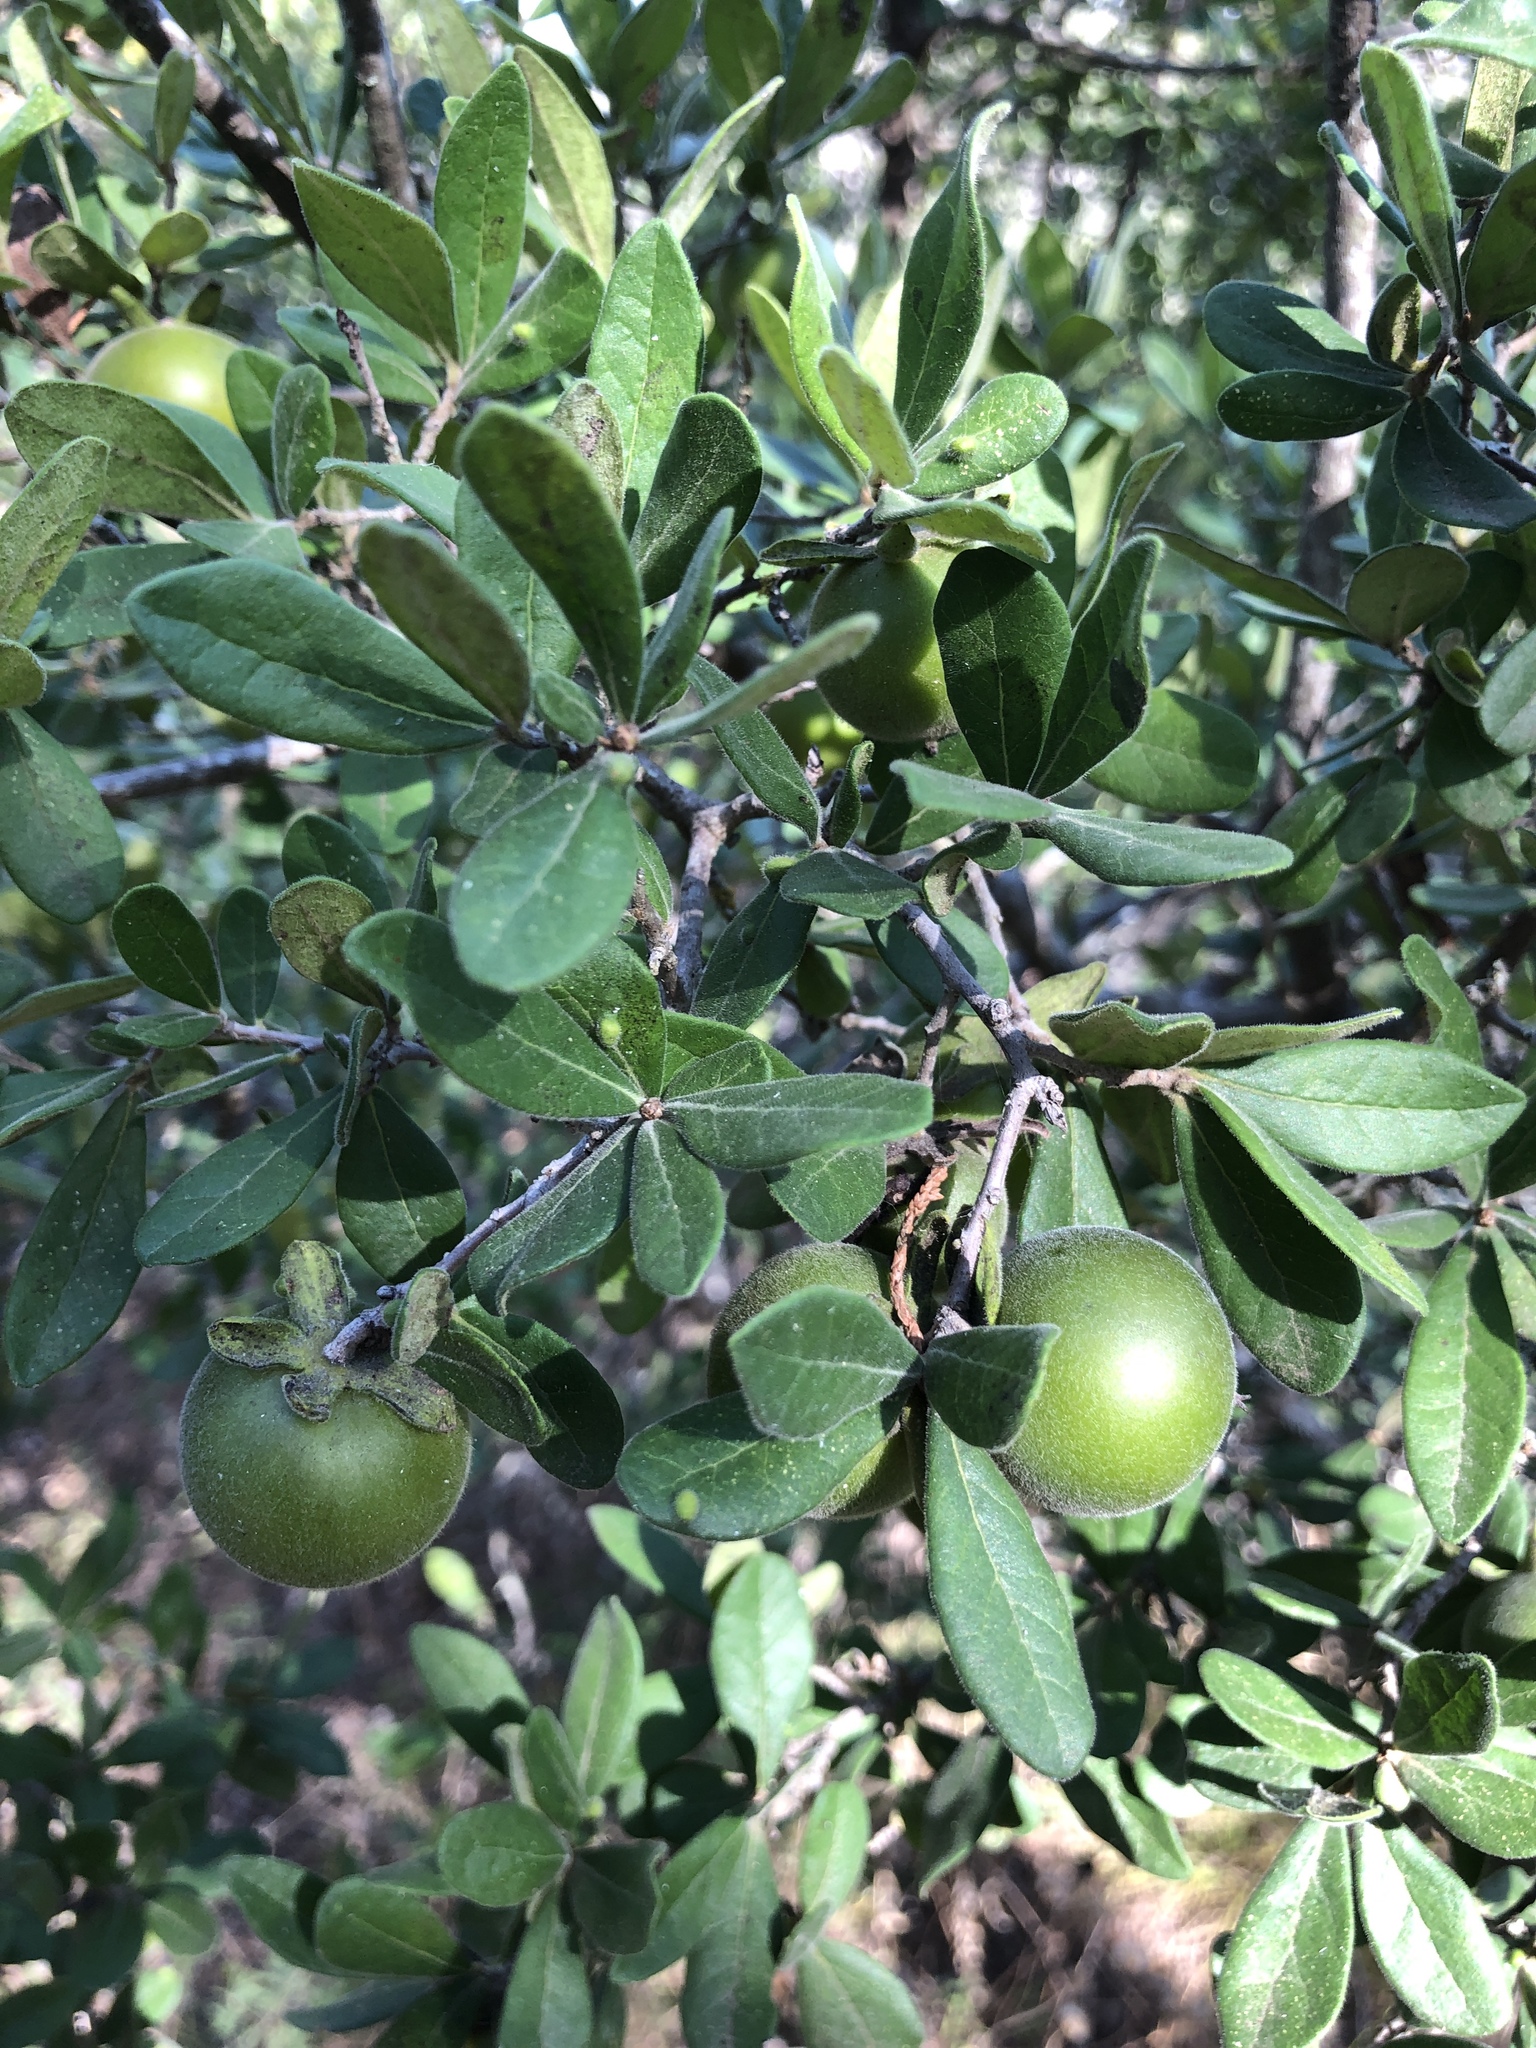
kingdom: Plantae
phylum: Tracheophyta
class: Magnoliopsida
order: Ericales
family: Ebenaceae
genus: Diospyros
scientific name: Diospyros texana
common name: Texas persimmon
